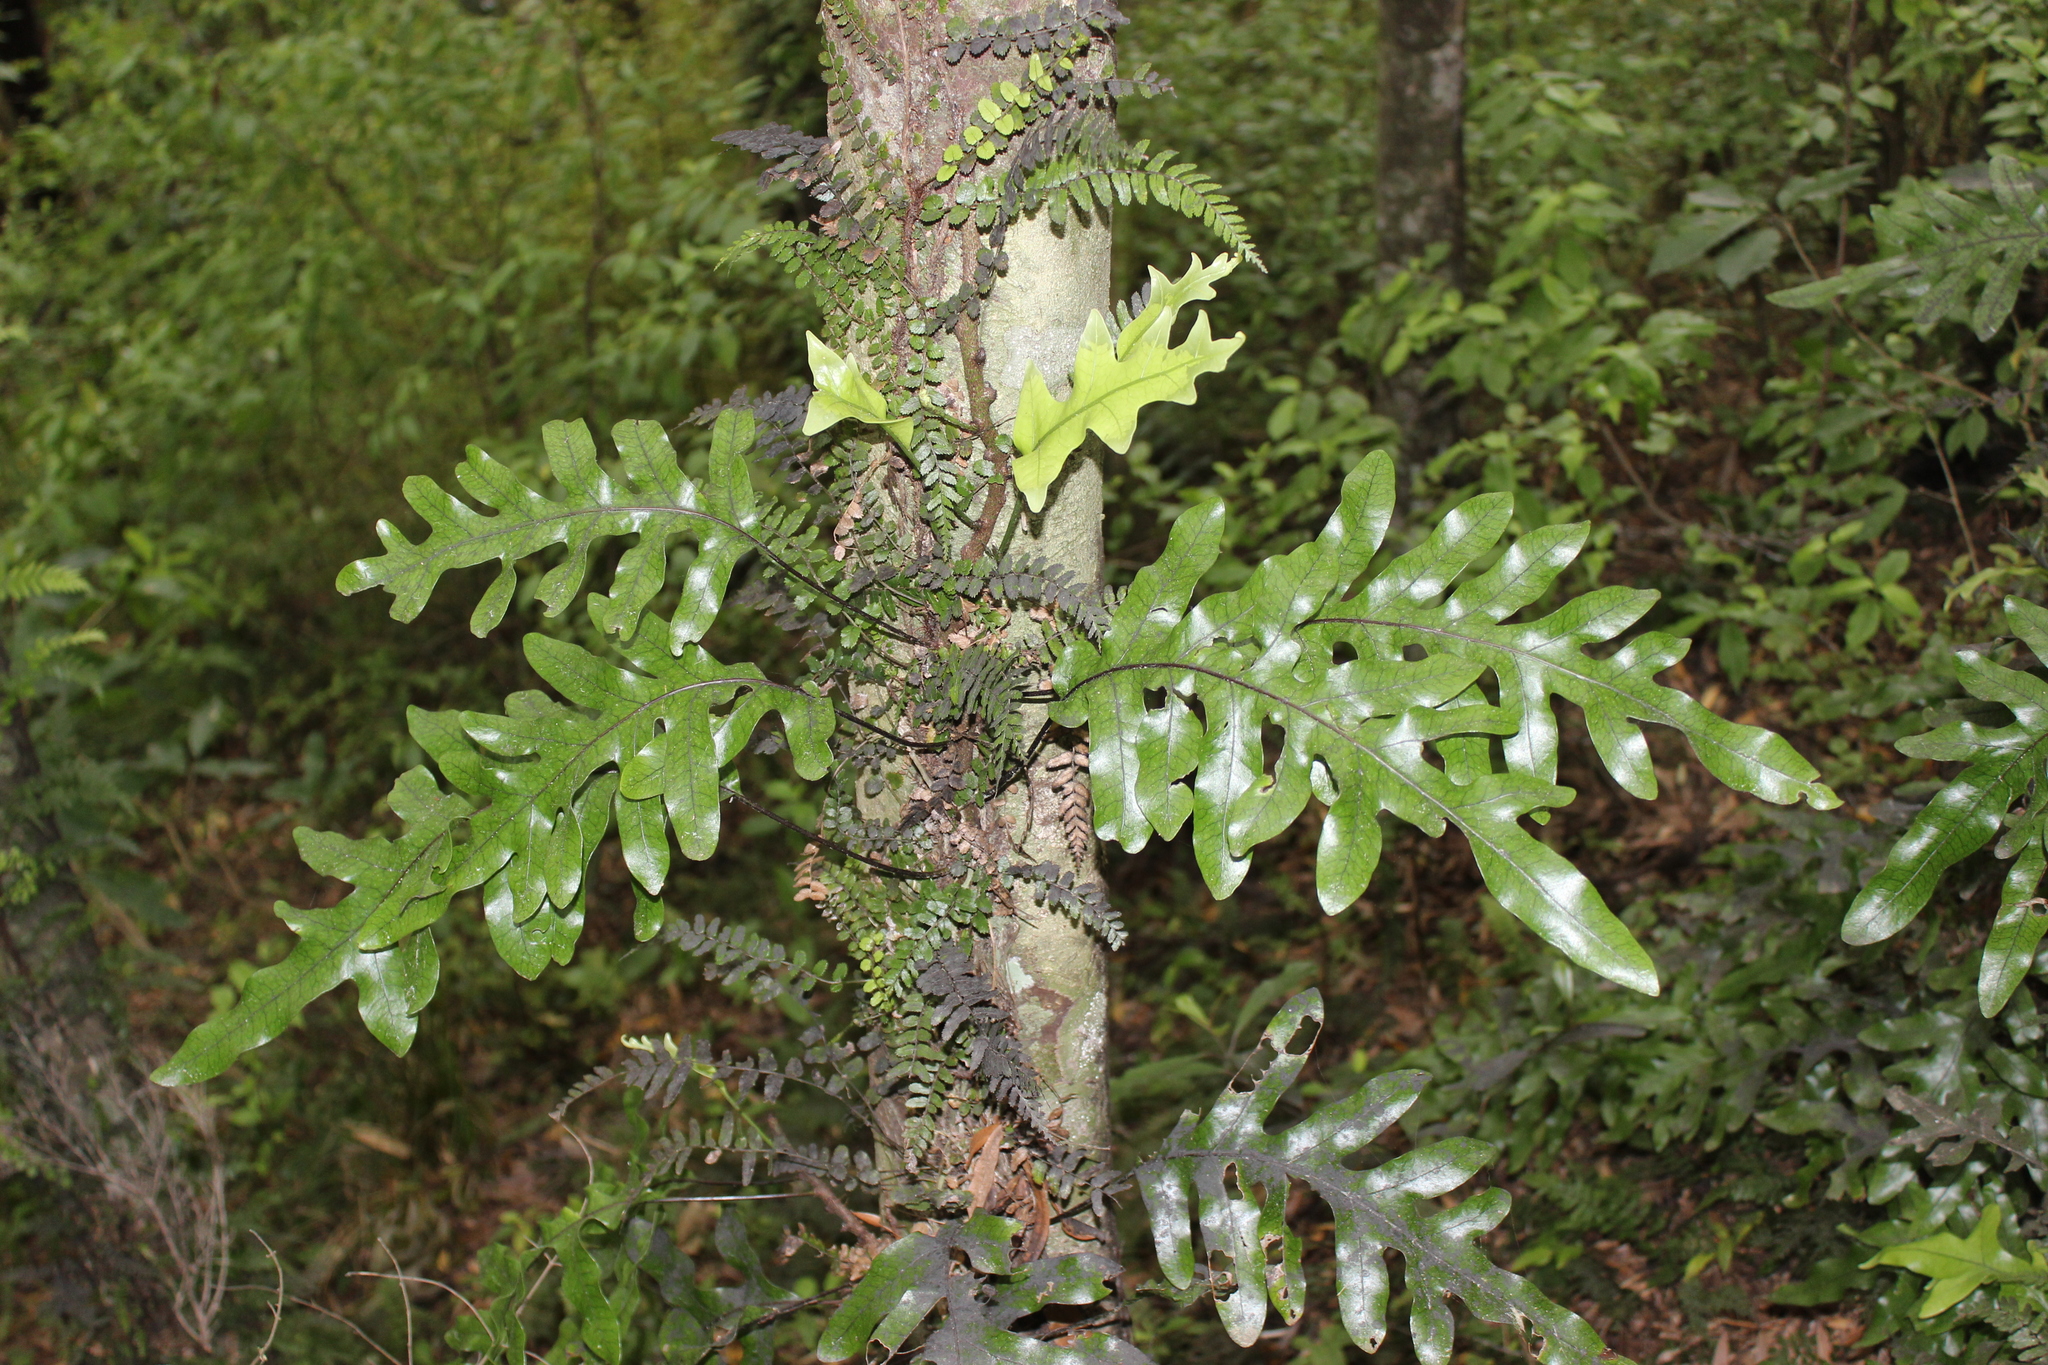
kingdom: Plantae
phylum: Tracheophyta
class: Polypodiopsida
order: Polypodiales
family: Polypodiaceae
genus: Lecanopteris
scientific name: Lecanopteris pustulata
